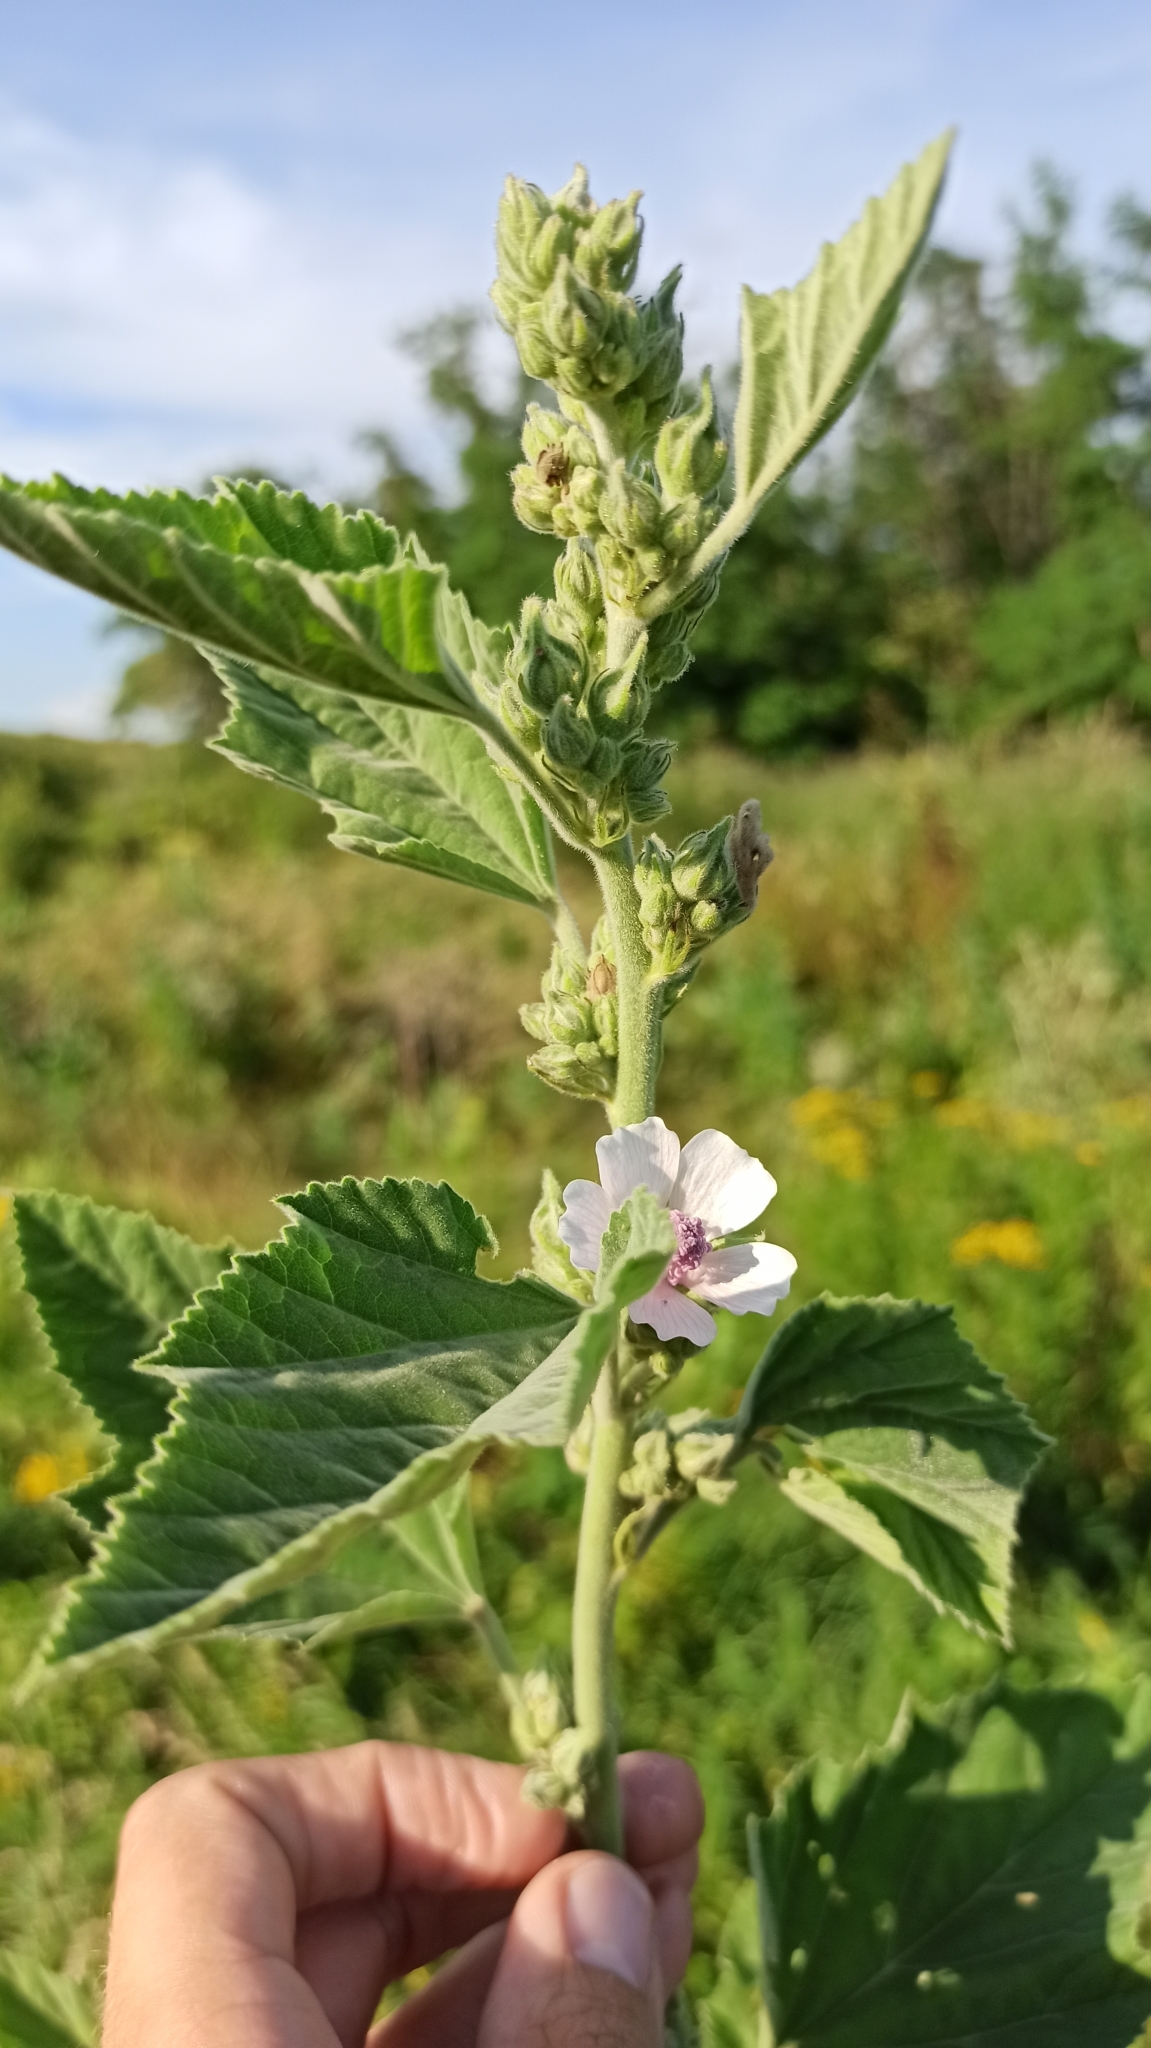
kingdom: Plantae
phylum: Tracheophyta
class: Magnoliopsida
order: Malvales
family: Malvaceae
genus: Althaea
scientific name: Althaea officinalis
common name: Marsh-mallow
